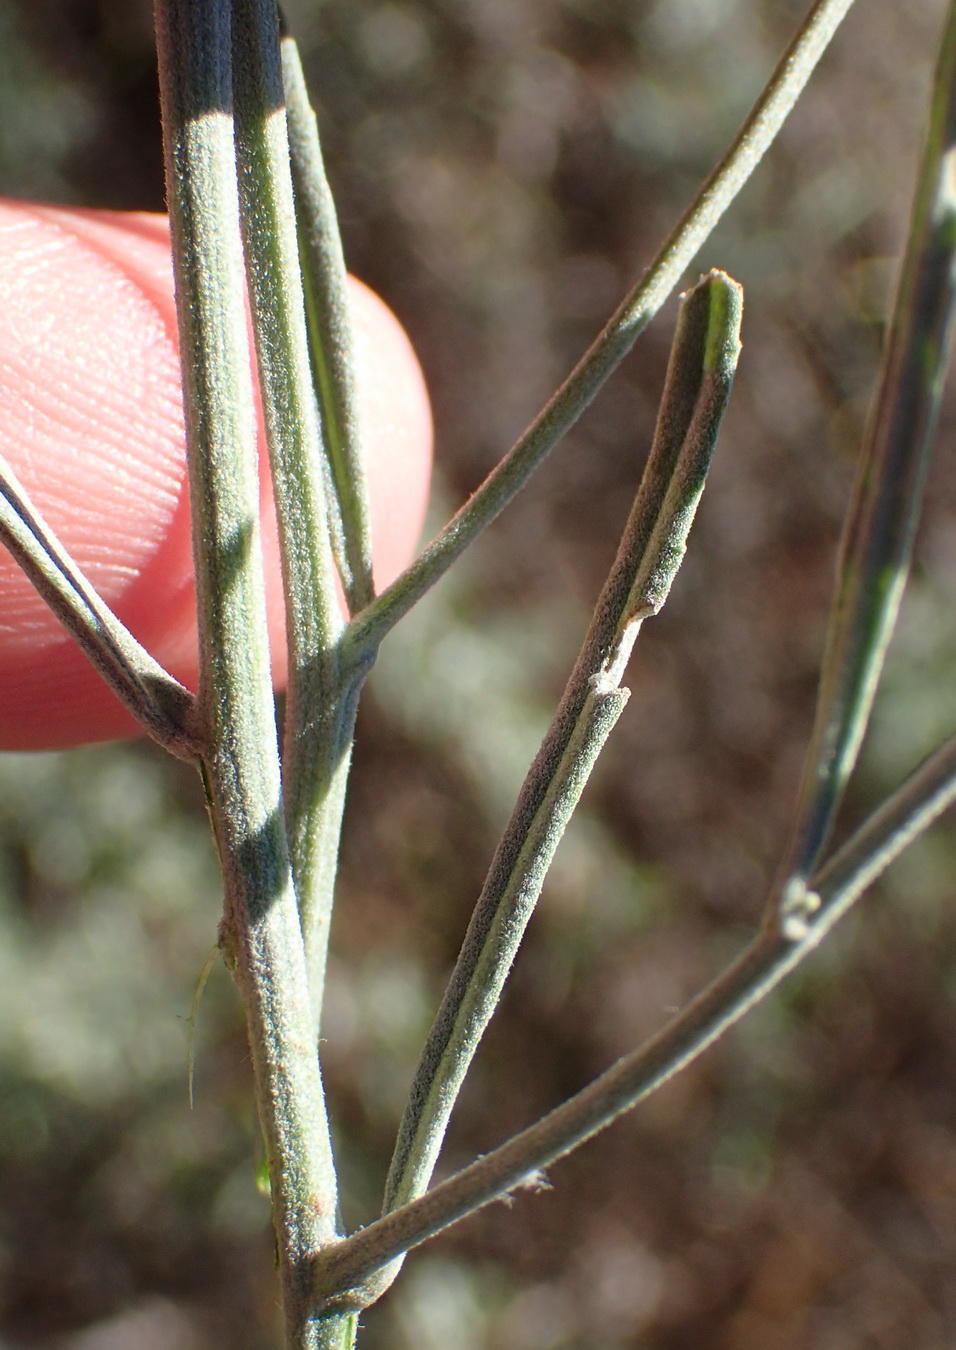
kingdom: Plantae
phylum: Tracheophyta
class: Magnoliopsida
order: Asterales
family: Asteraceae
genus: Oocephala
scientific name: Oocephala staehelinoides
